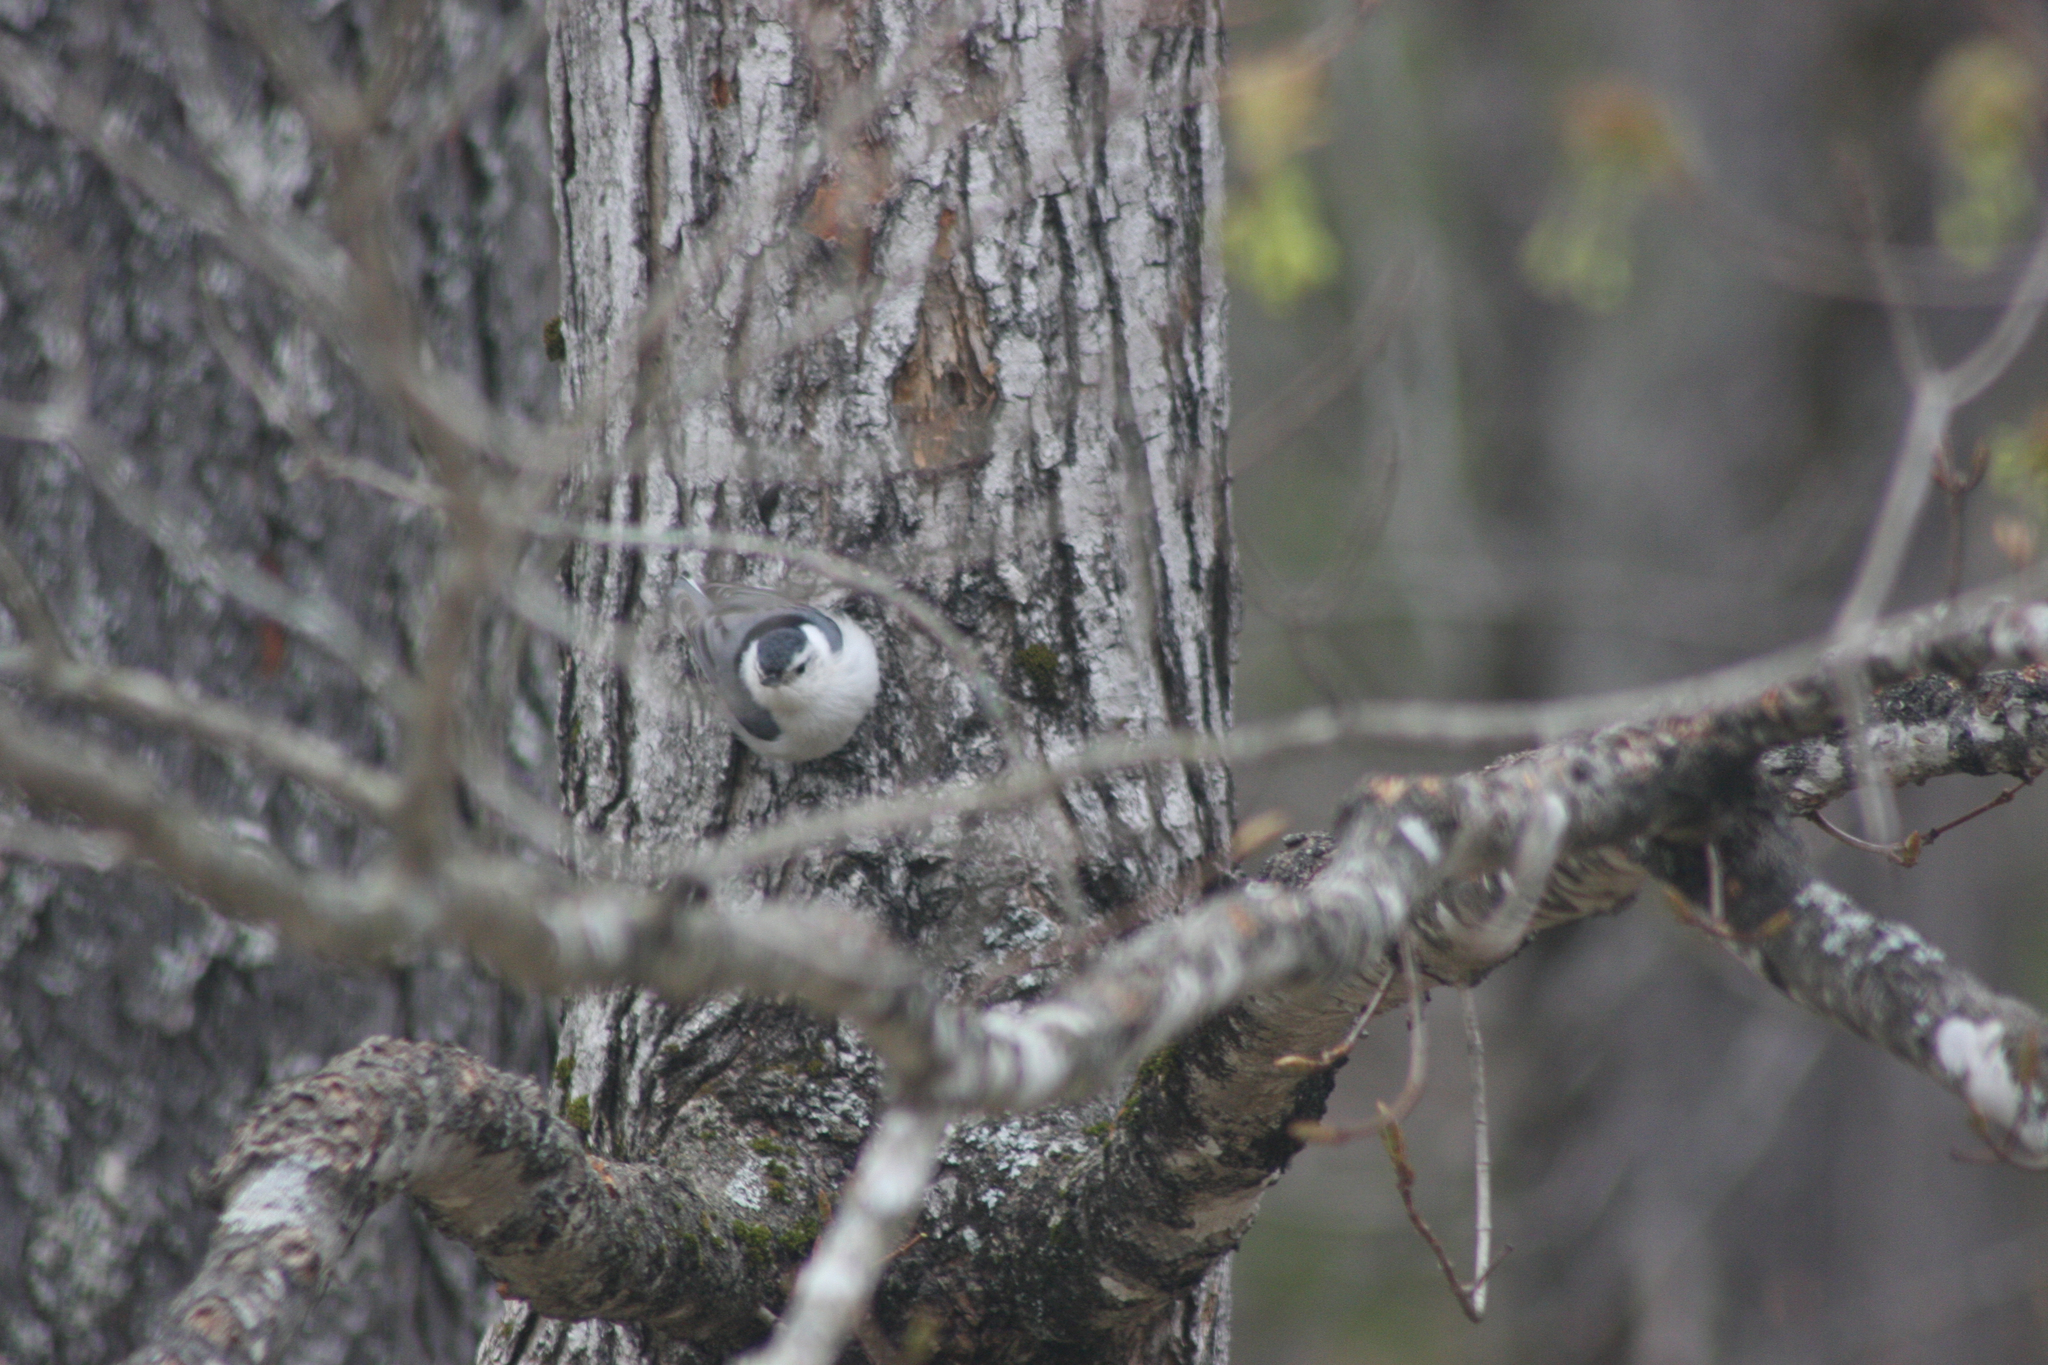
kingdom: Animalia
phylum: Chordata
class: Aves
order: Passeriformes
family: Sittidae
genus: Sitta
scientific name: Sitta carolinensis
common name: White-breasted nuthatch
